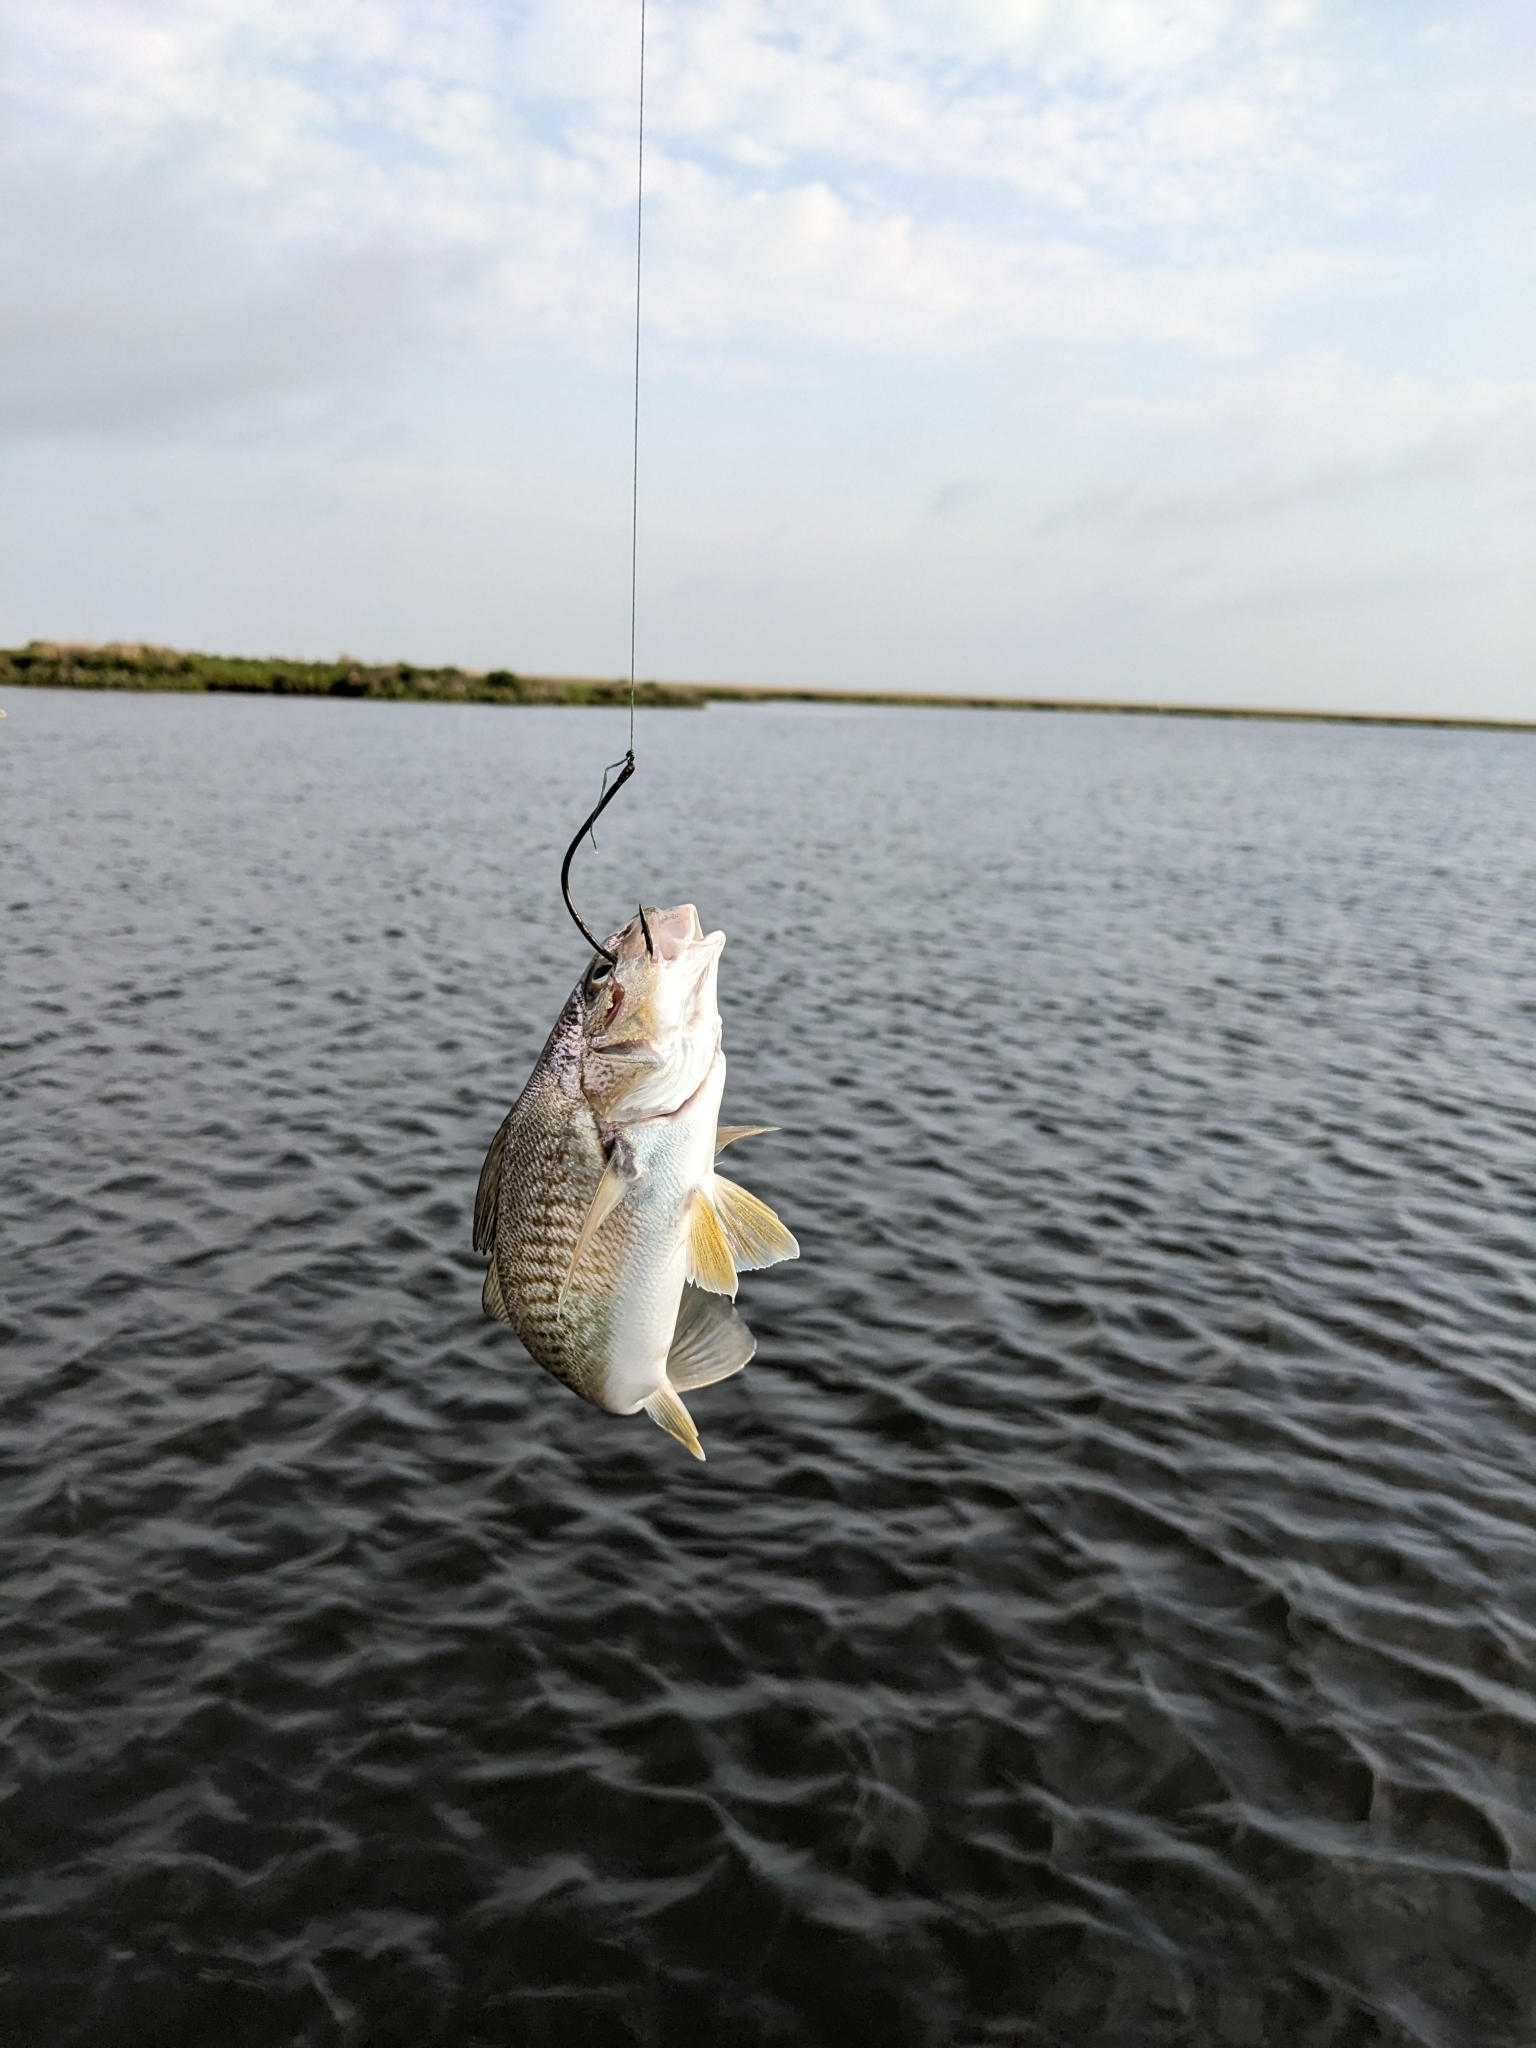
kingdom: Animalia
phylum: Chordata
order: Perciformes
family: Sciaenidae
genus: Micropogonias
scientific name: Micropogonias undulatus
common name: Atlantic croaker
